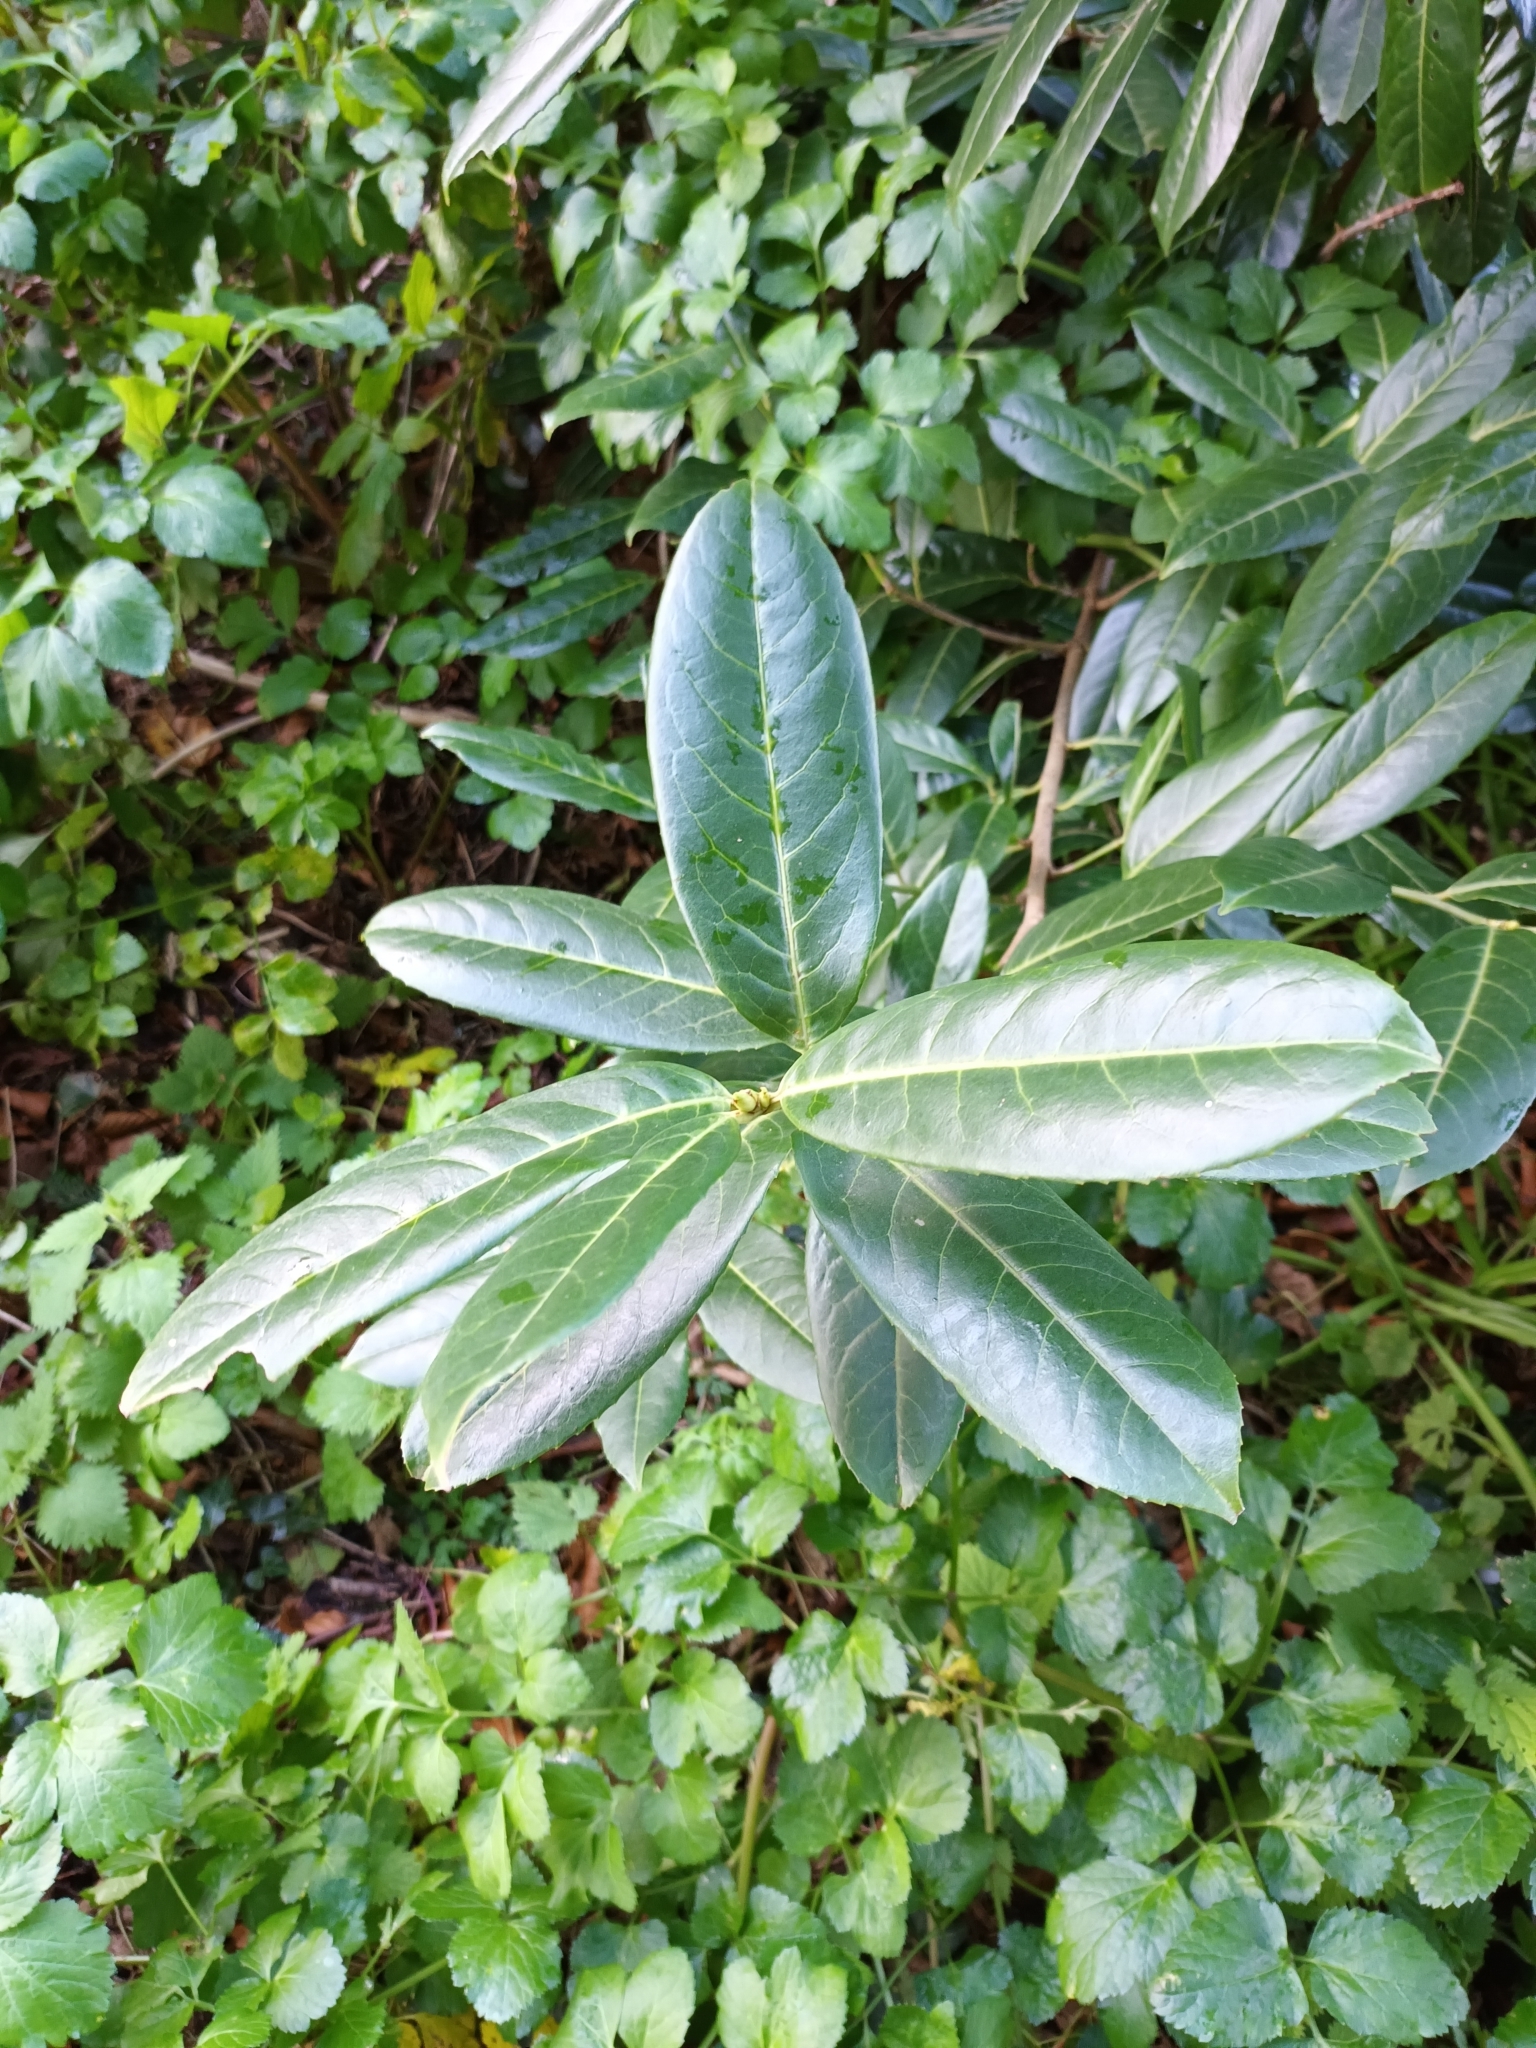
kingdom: Plantae
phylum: Tracheophyta
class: Magnoliopsida
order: Rosales
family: Rosaceae
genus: Prunus
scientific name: Prunus laurocerasus
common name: Cherry laurel
